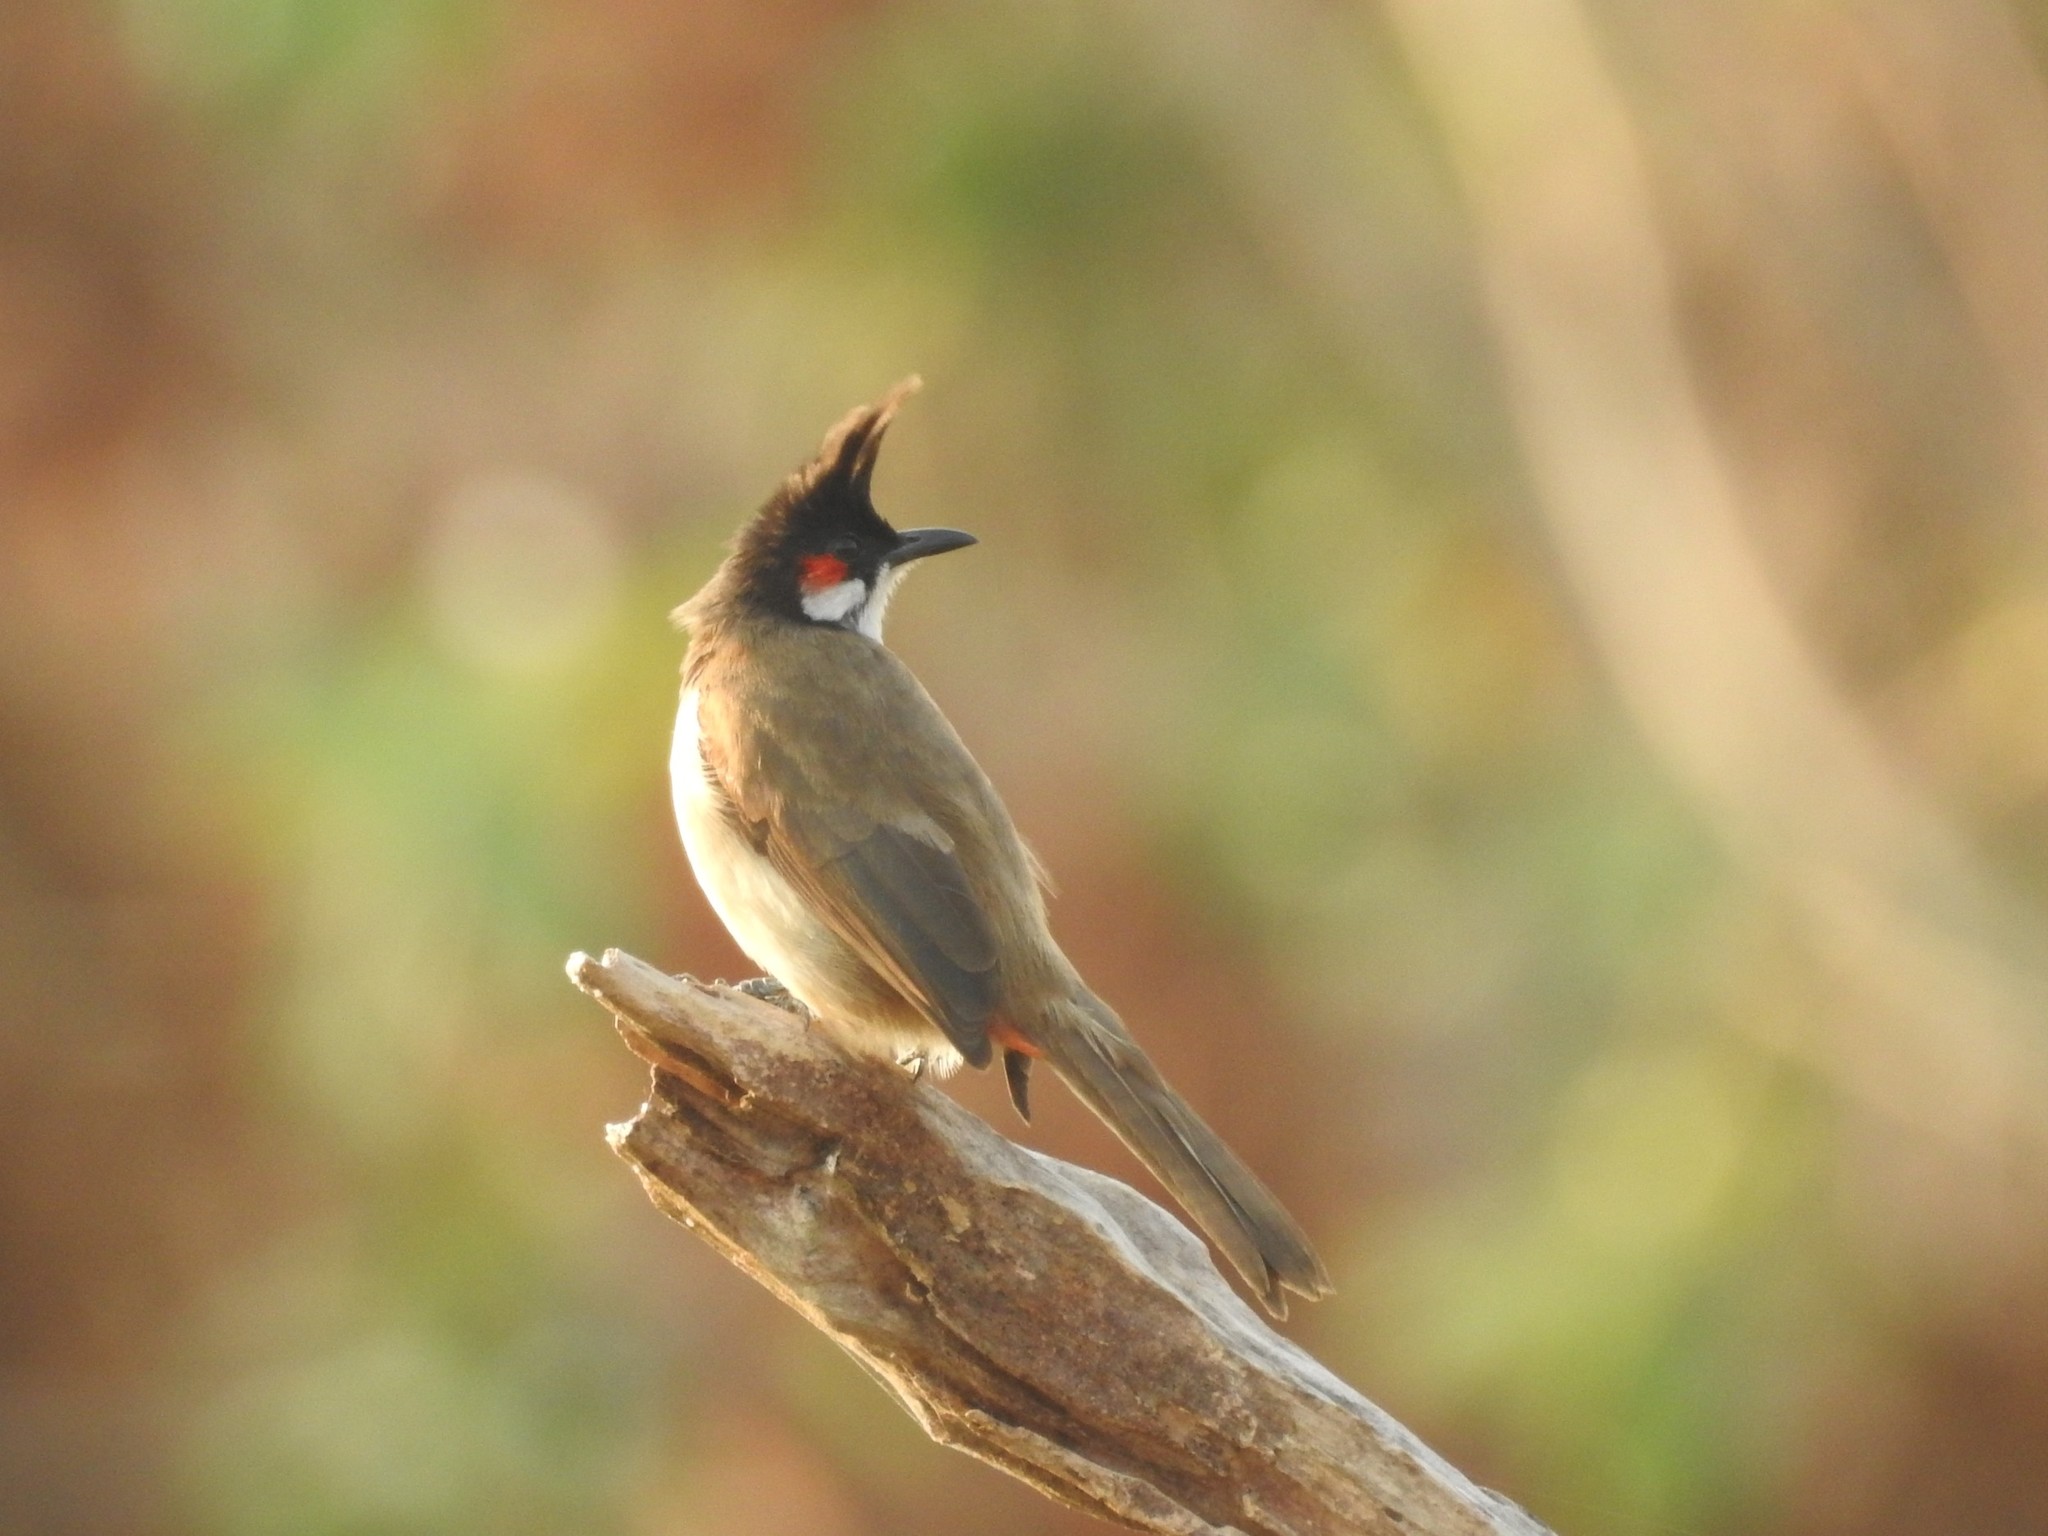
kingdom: Animalia
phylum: Chordata
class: Aves
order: Passeriformes
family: Pycnonotidae
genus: Pycnonotus
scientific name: Pycnonotus jocosus
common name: Red-whiskered bulbul
